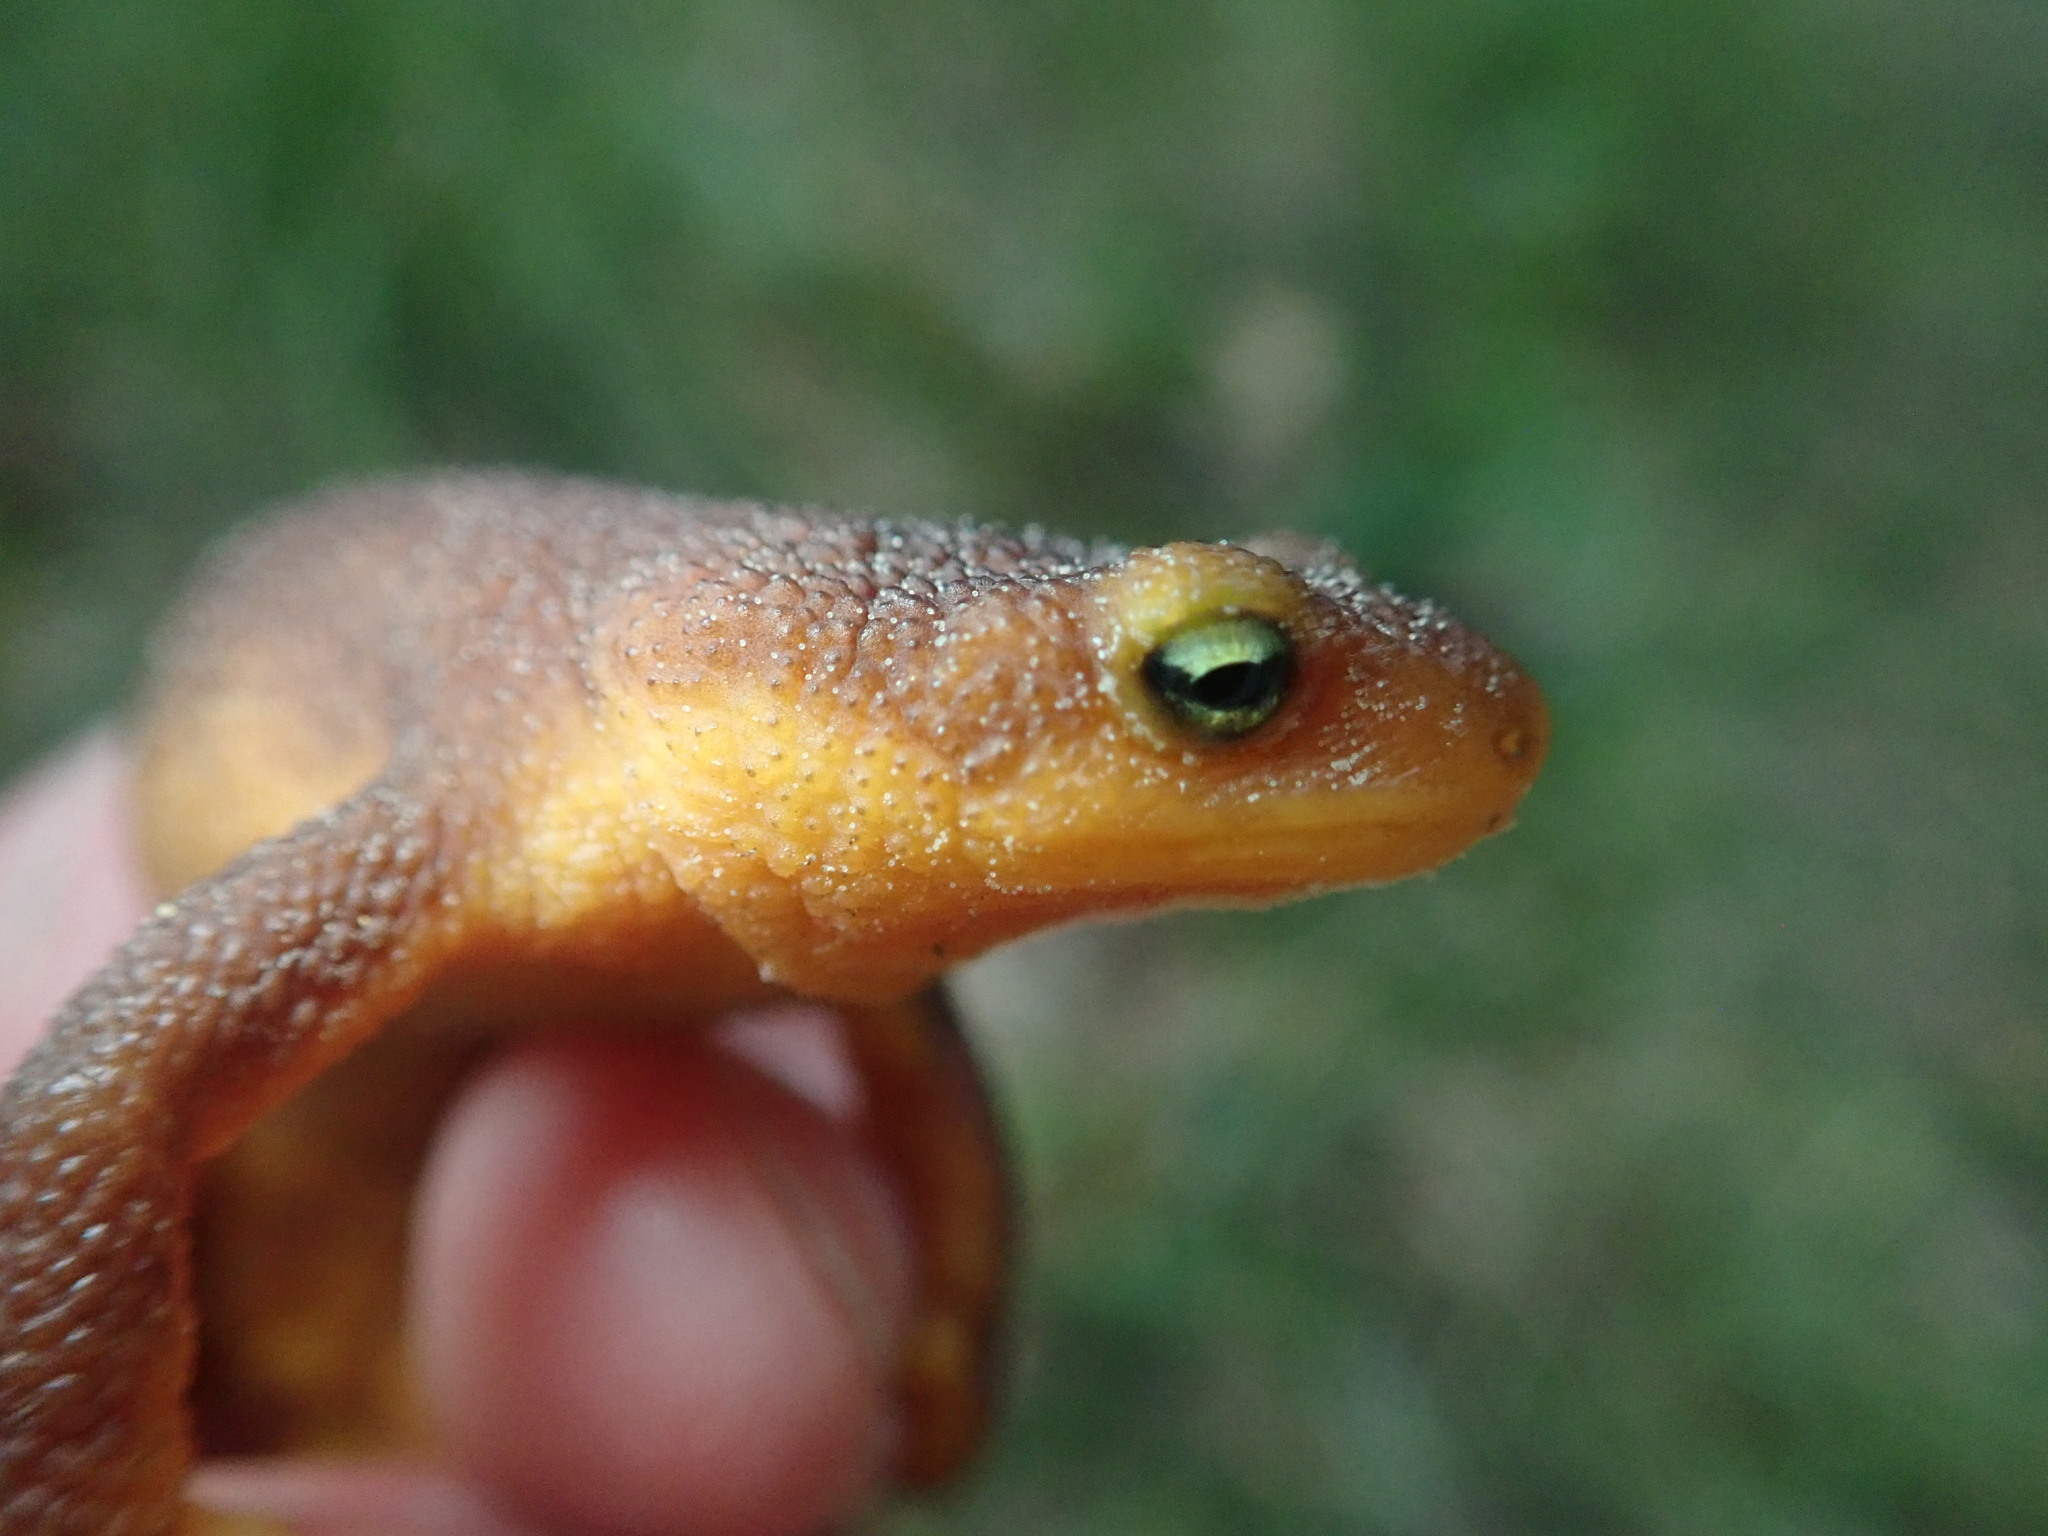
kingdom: Animalia
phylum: Chordata
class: Amphibia
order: Caudata
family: Salamandridae
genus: Taricha
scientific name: Taricha torosa
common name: California newt
